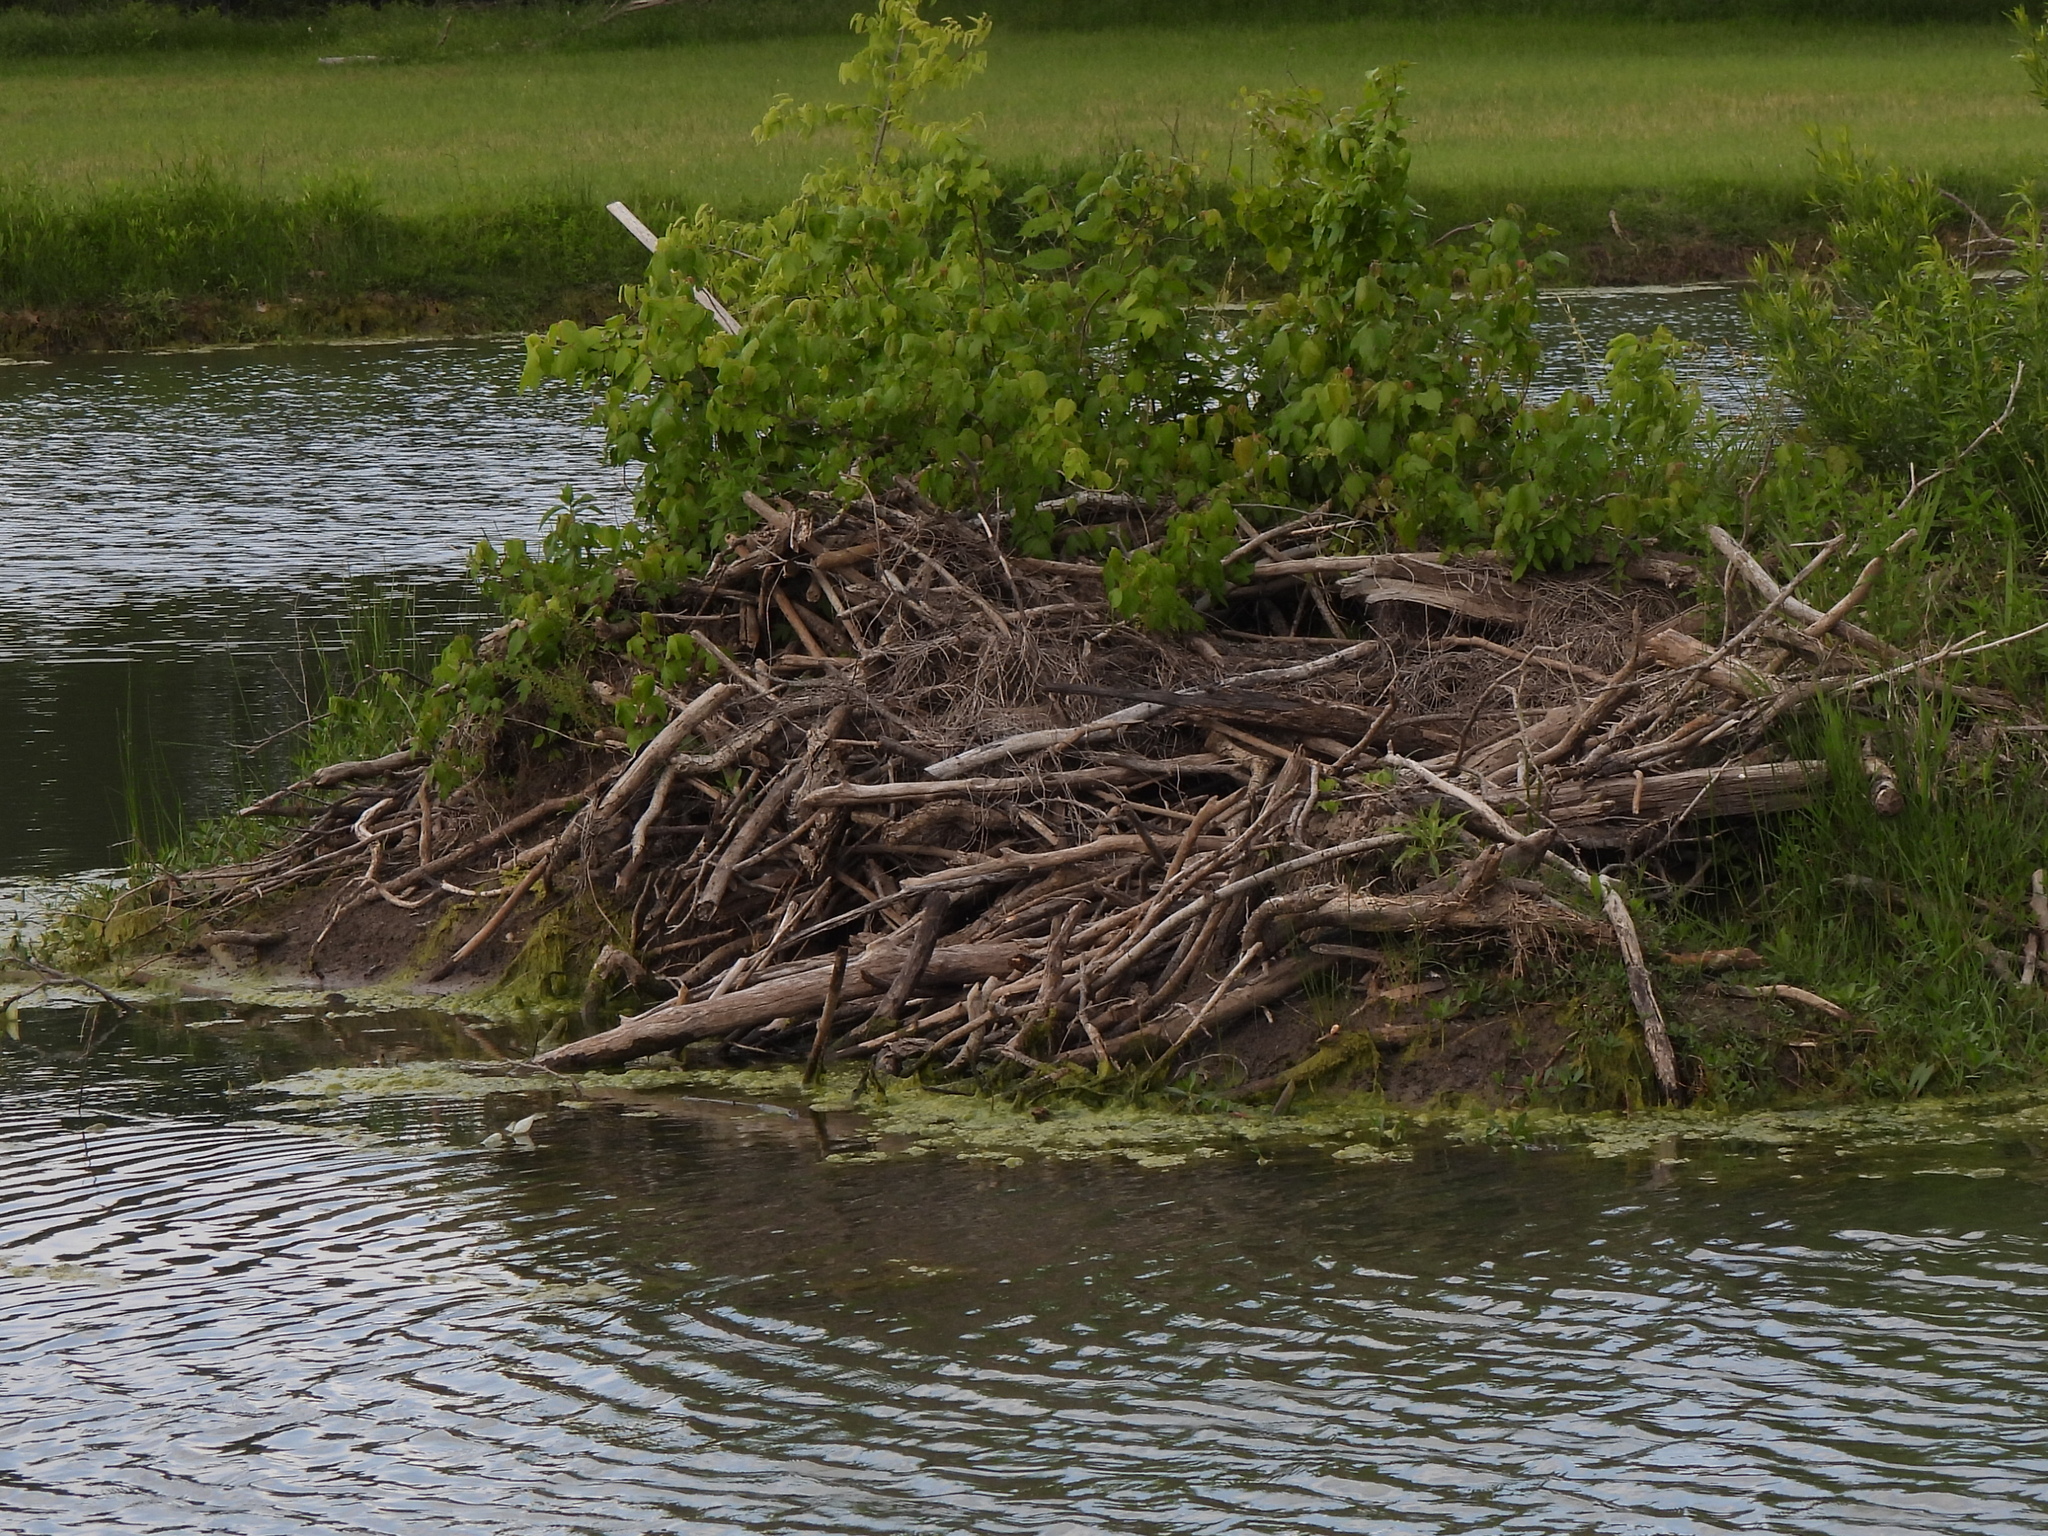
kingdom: Animalia
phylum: Chordata
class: Mammalia
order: Rodentia
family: Castoridae
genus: Castor
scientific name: Castor canadensis
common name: American beaver
